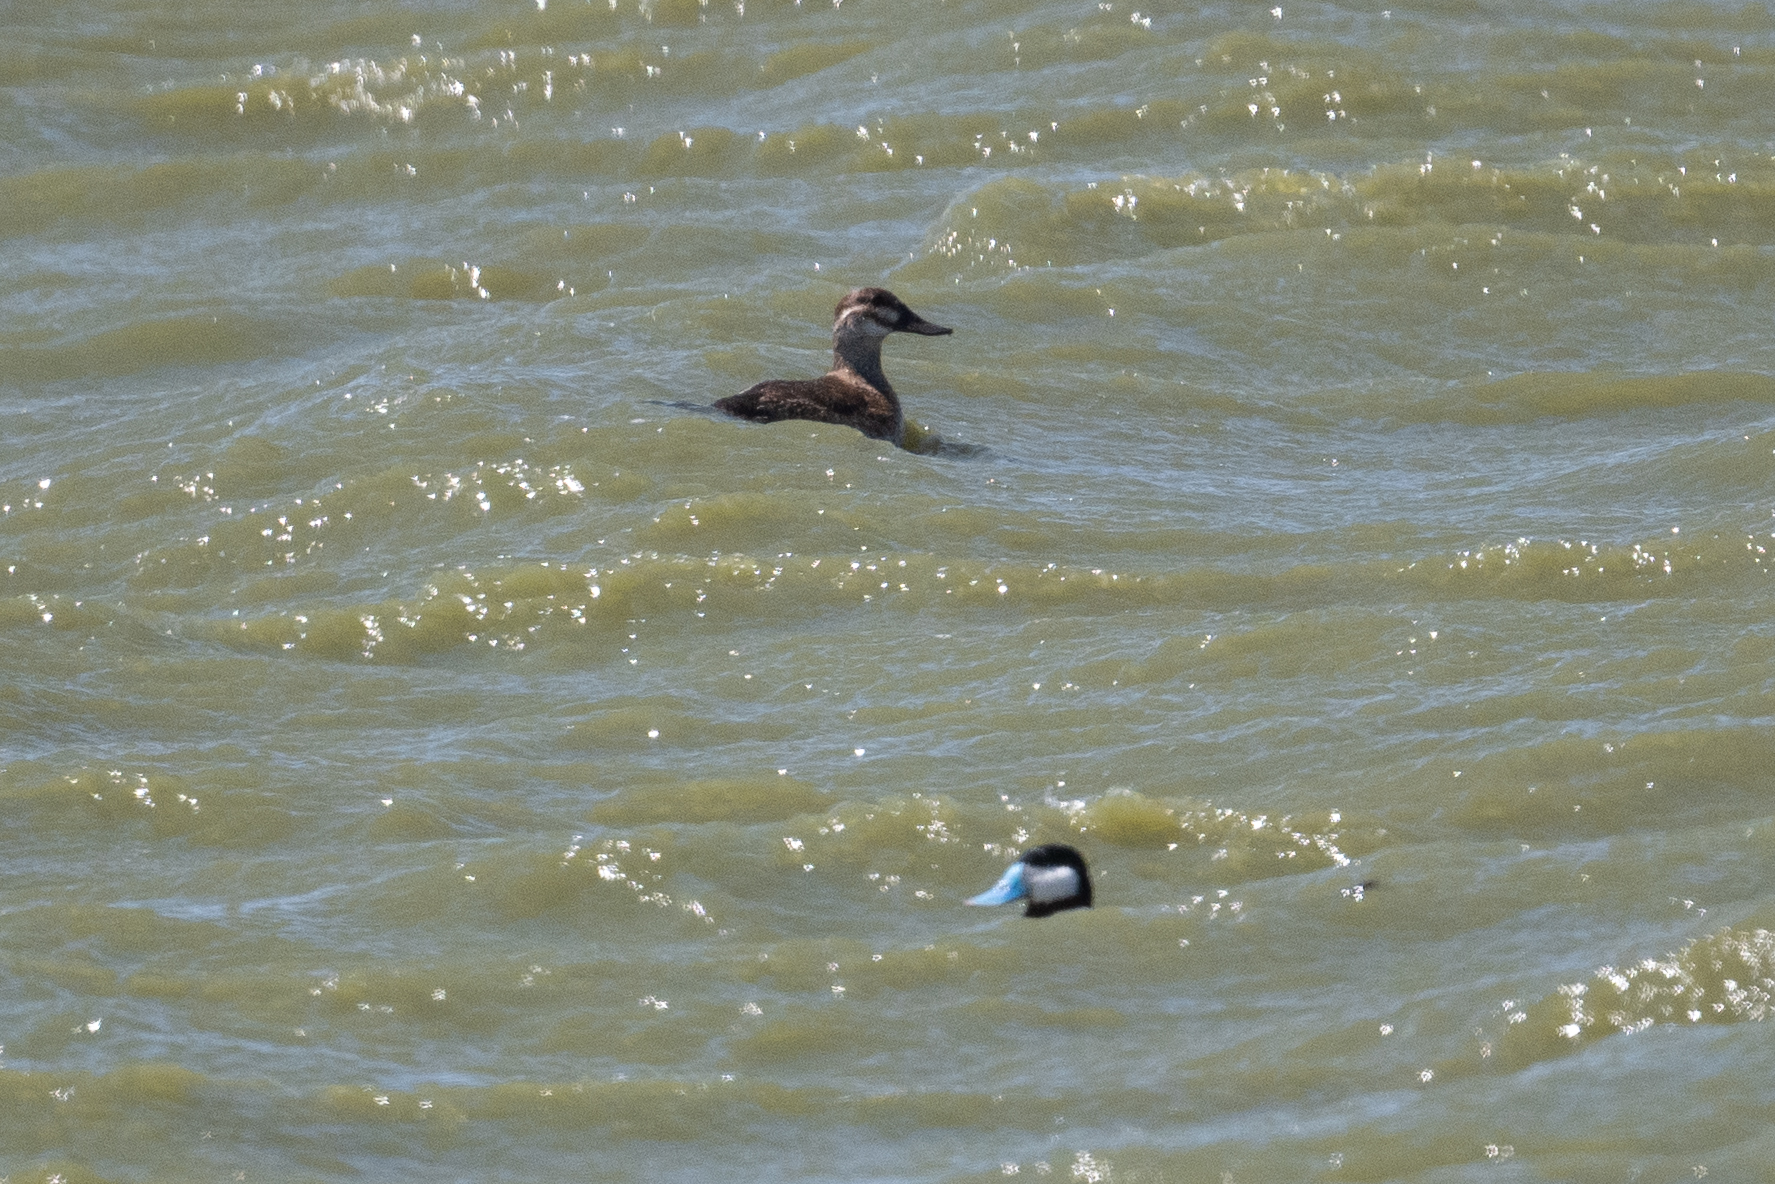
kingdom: Animalia
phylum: Chordata
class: Aves
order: Anseriformes
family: Anatidae
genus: Oxyura
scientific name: Oxyura jamaicensis
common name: Ruddy duck
